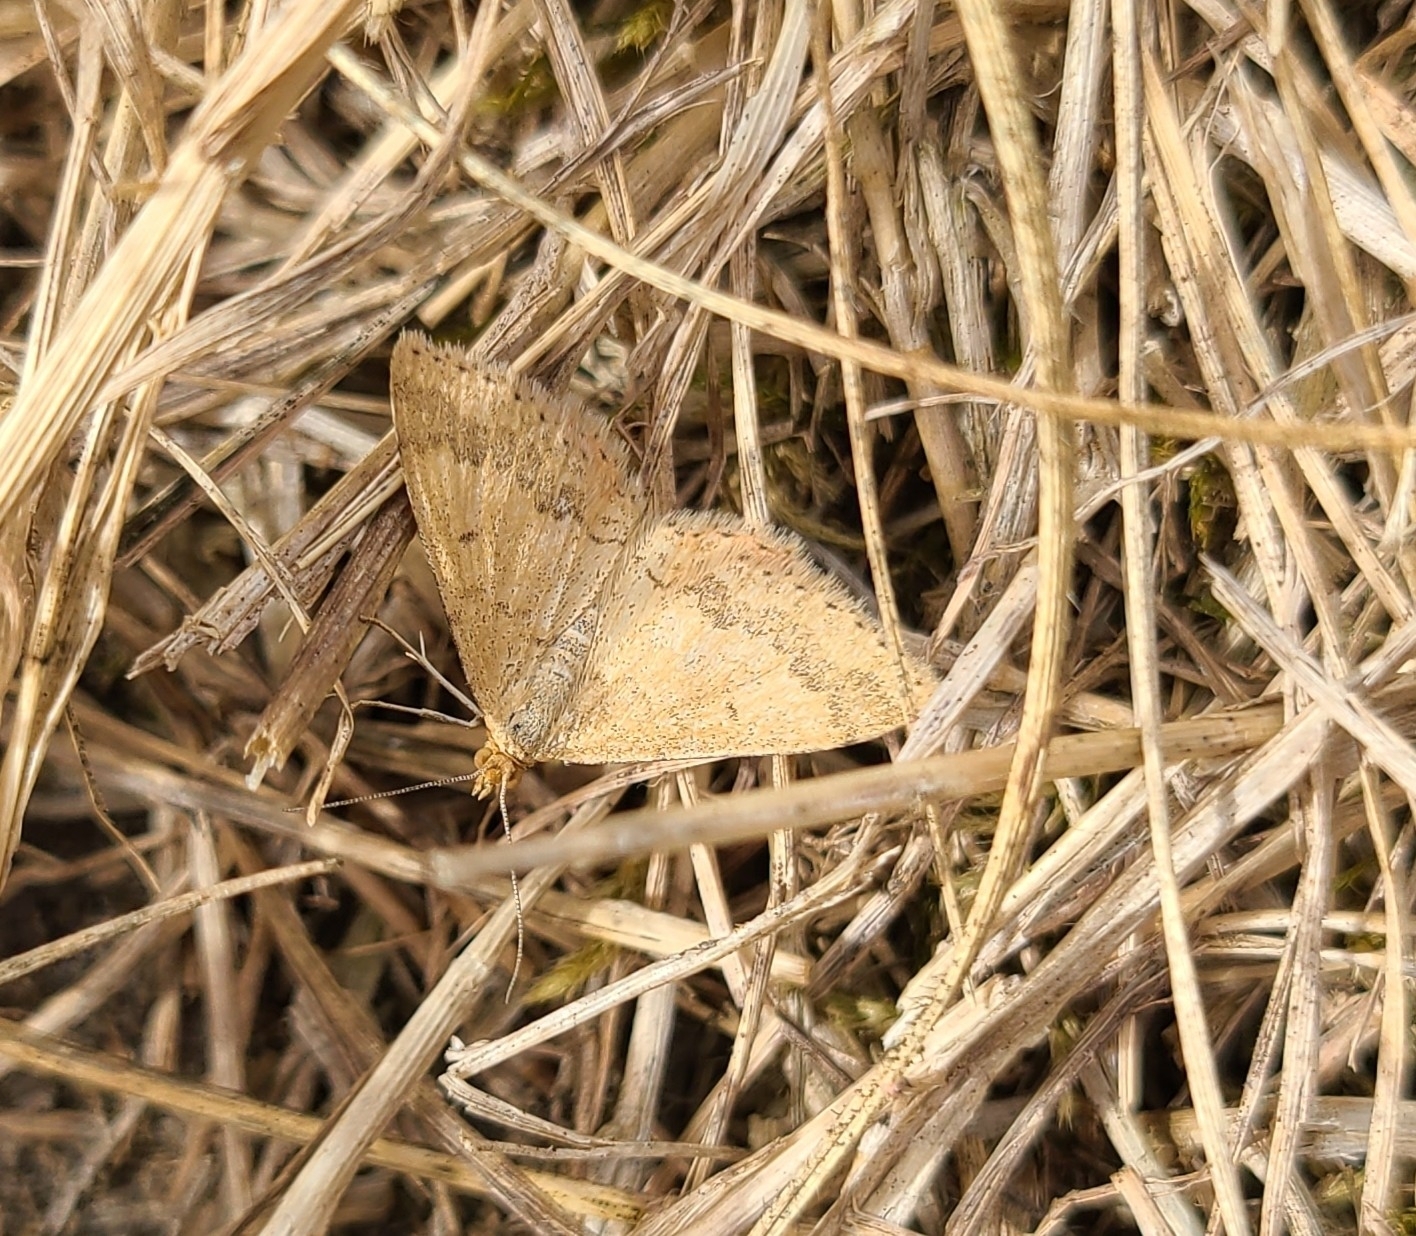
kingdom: Animalia
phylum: Arthropoda
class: Insecta
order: Lepidoptera
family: Geometridae
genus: Scopula
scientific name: Scopula rubraria
